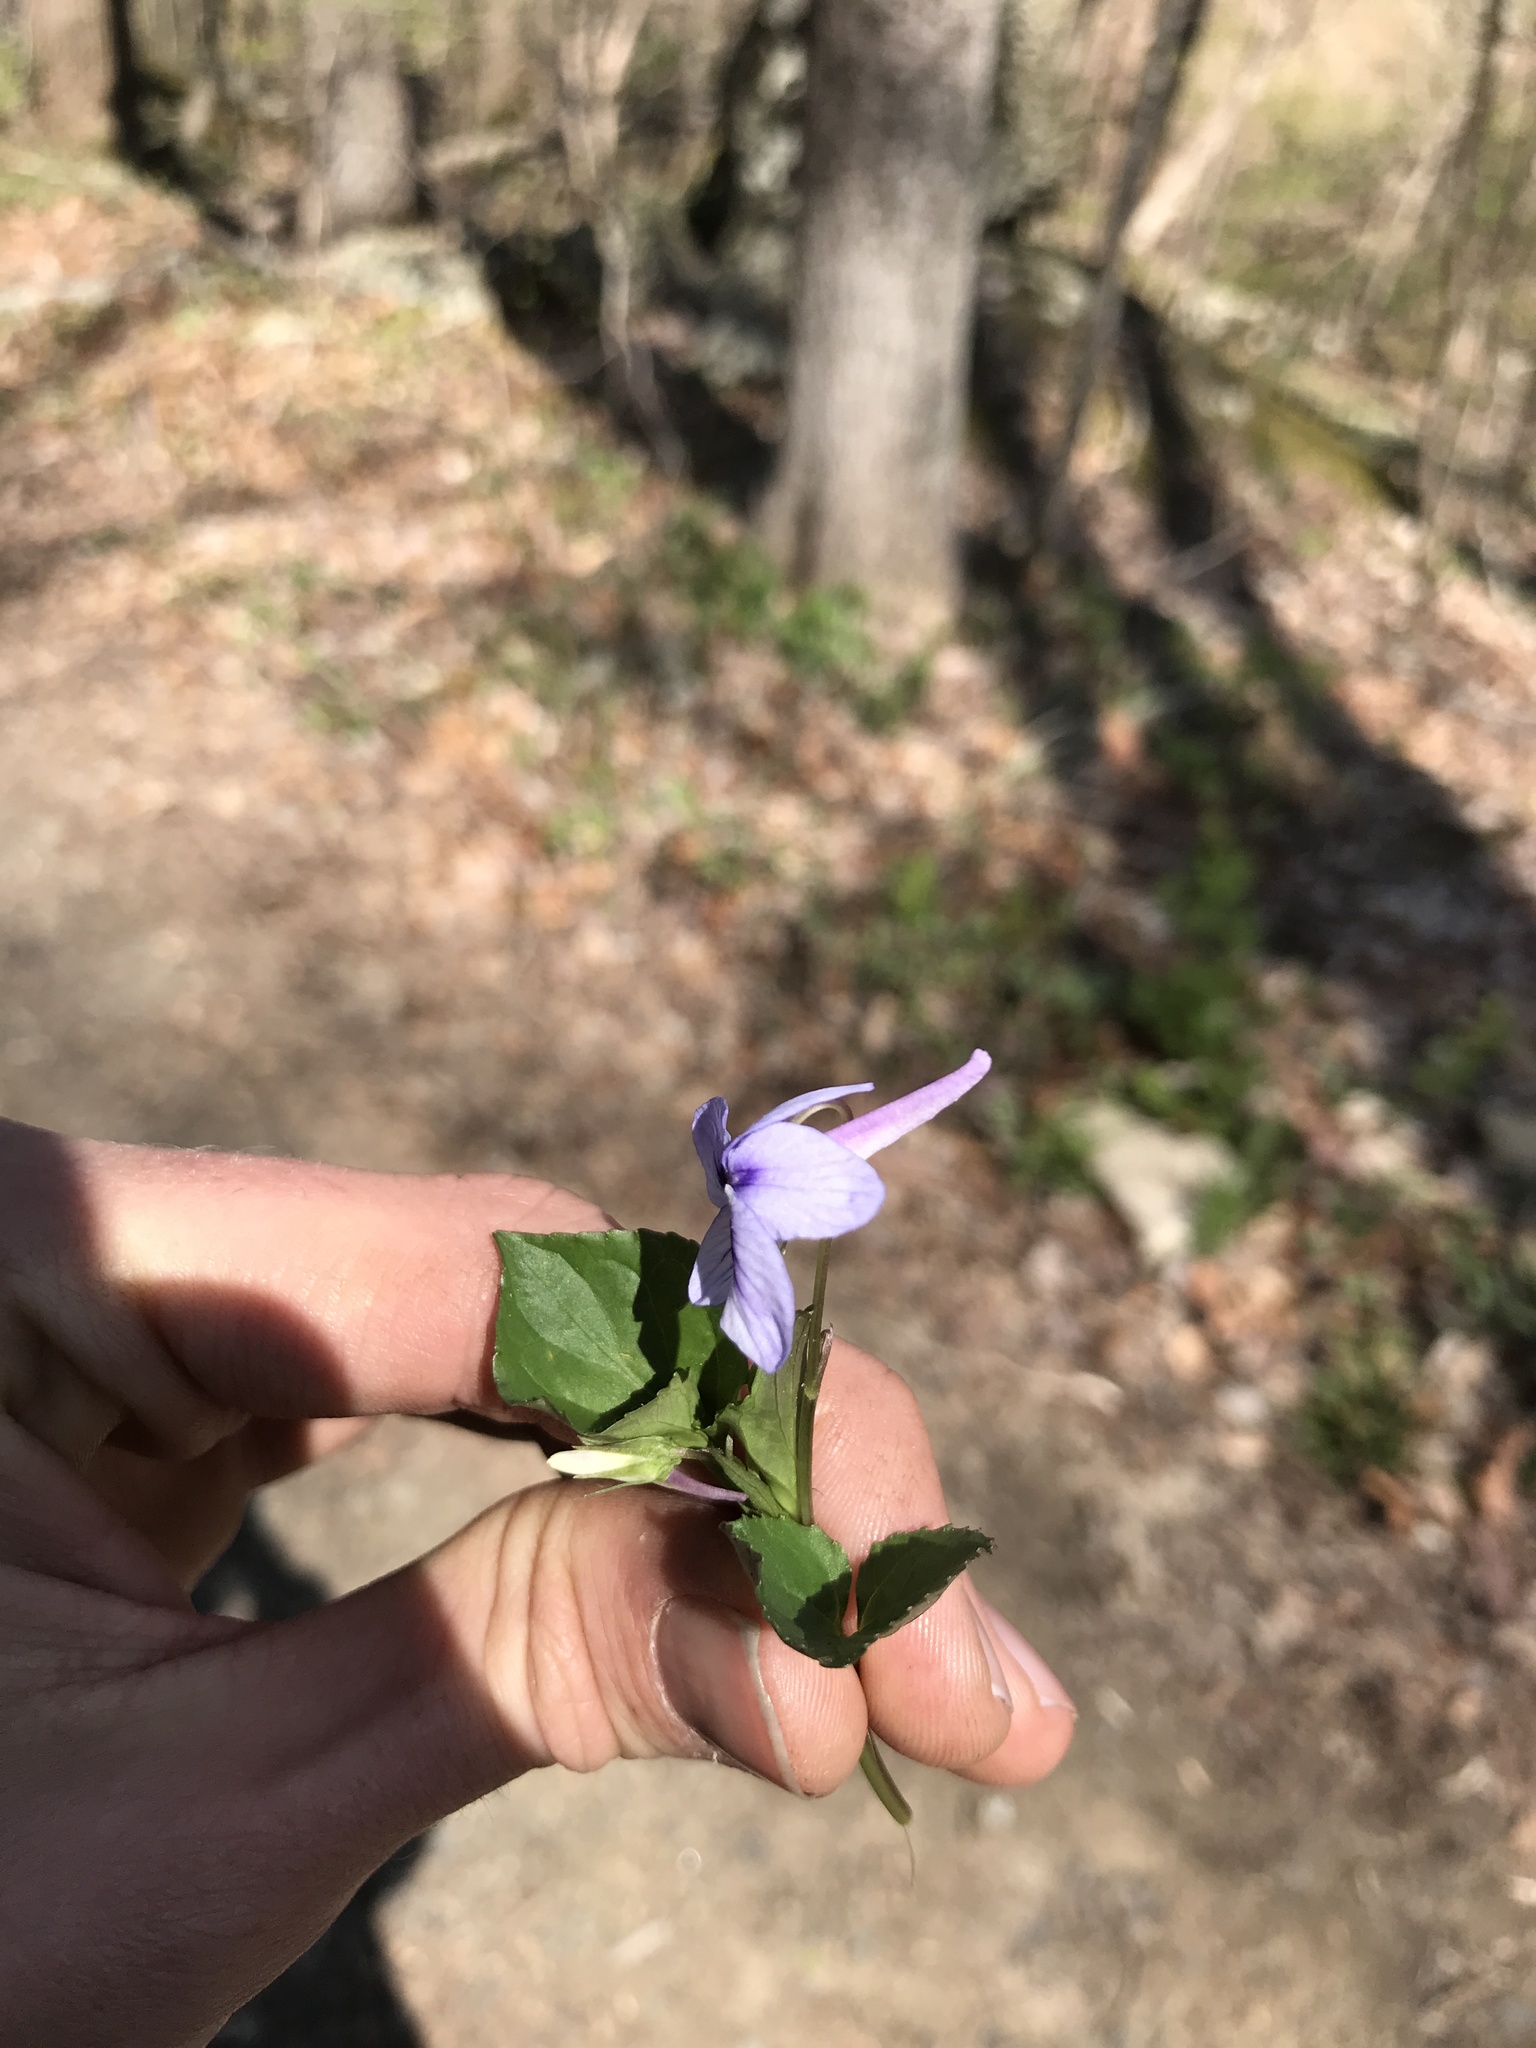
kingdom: Plantae
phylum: Tracheophyta
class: Magnoliopsida
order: Malpighiales
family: Violaceae
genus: Viola
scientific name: Viola rostrata
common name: Long-spur violet
